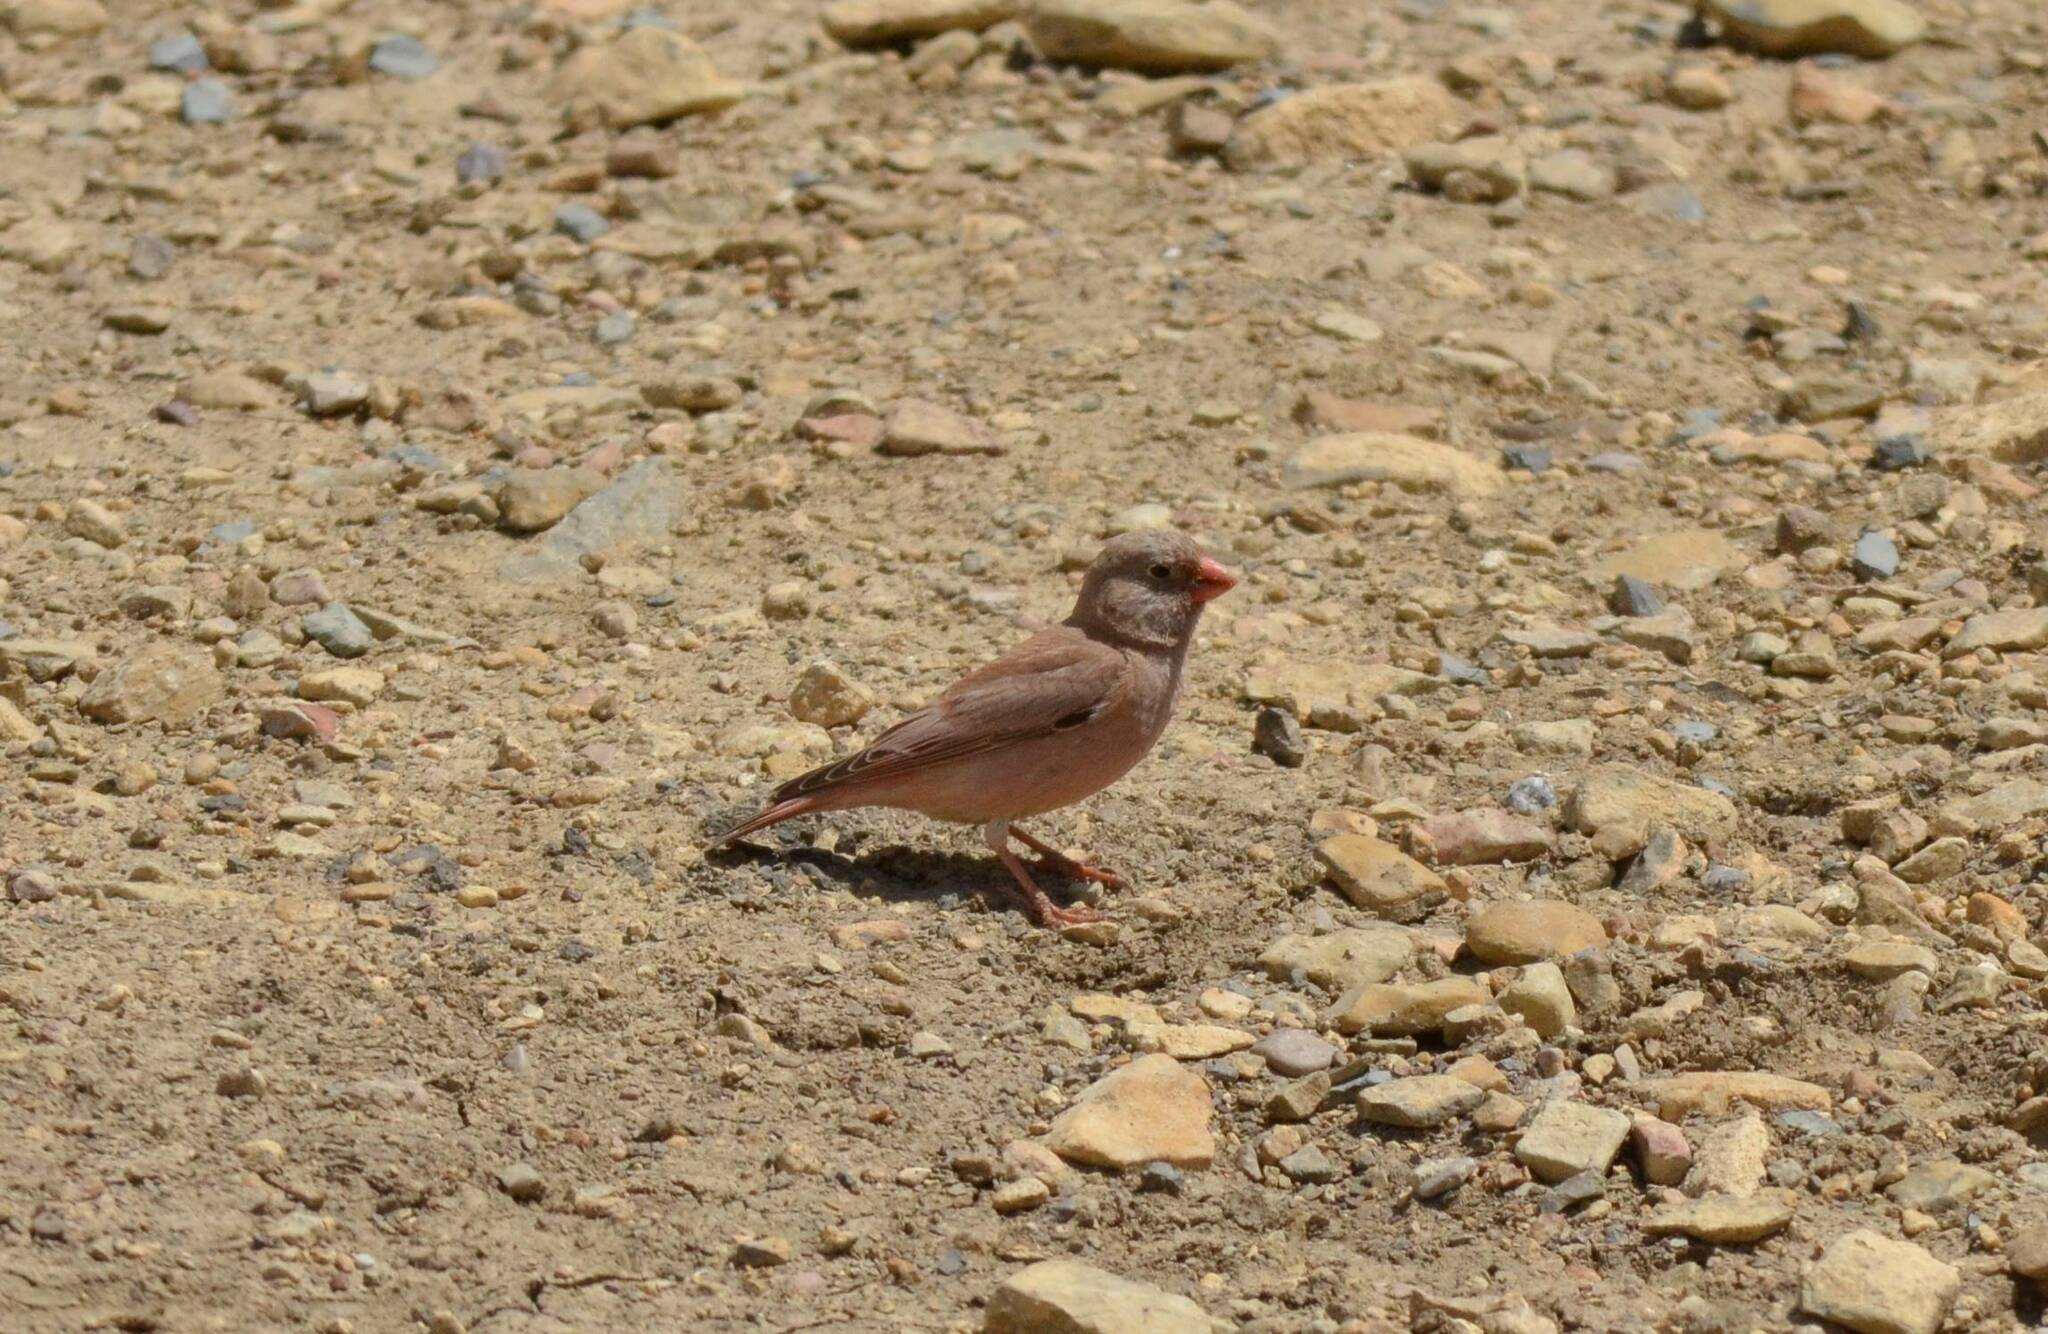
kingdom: Animalia
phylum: Chordata
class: Aves
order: Passeriformes
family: Fringillidae
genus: Bucanetes
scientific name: Bucanetes githagineus
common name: Trumpeter finch
